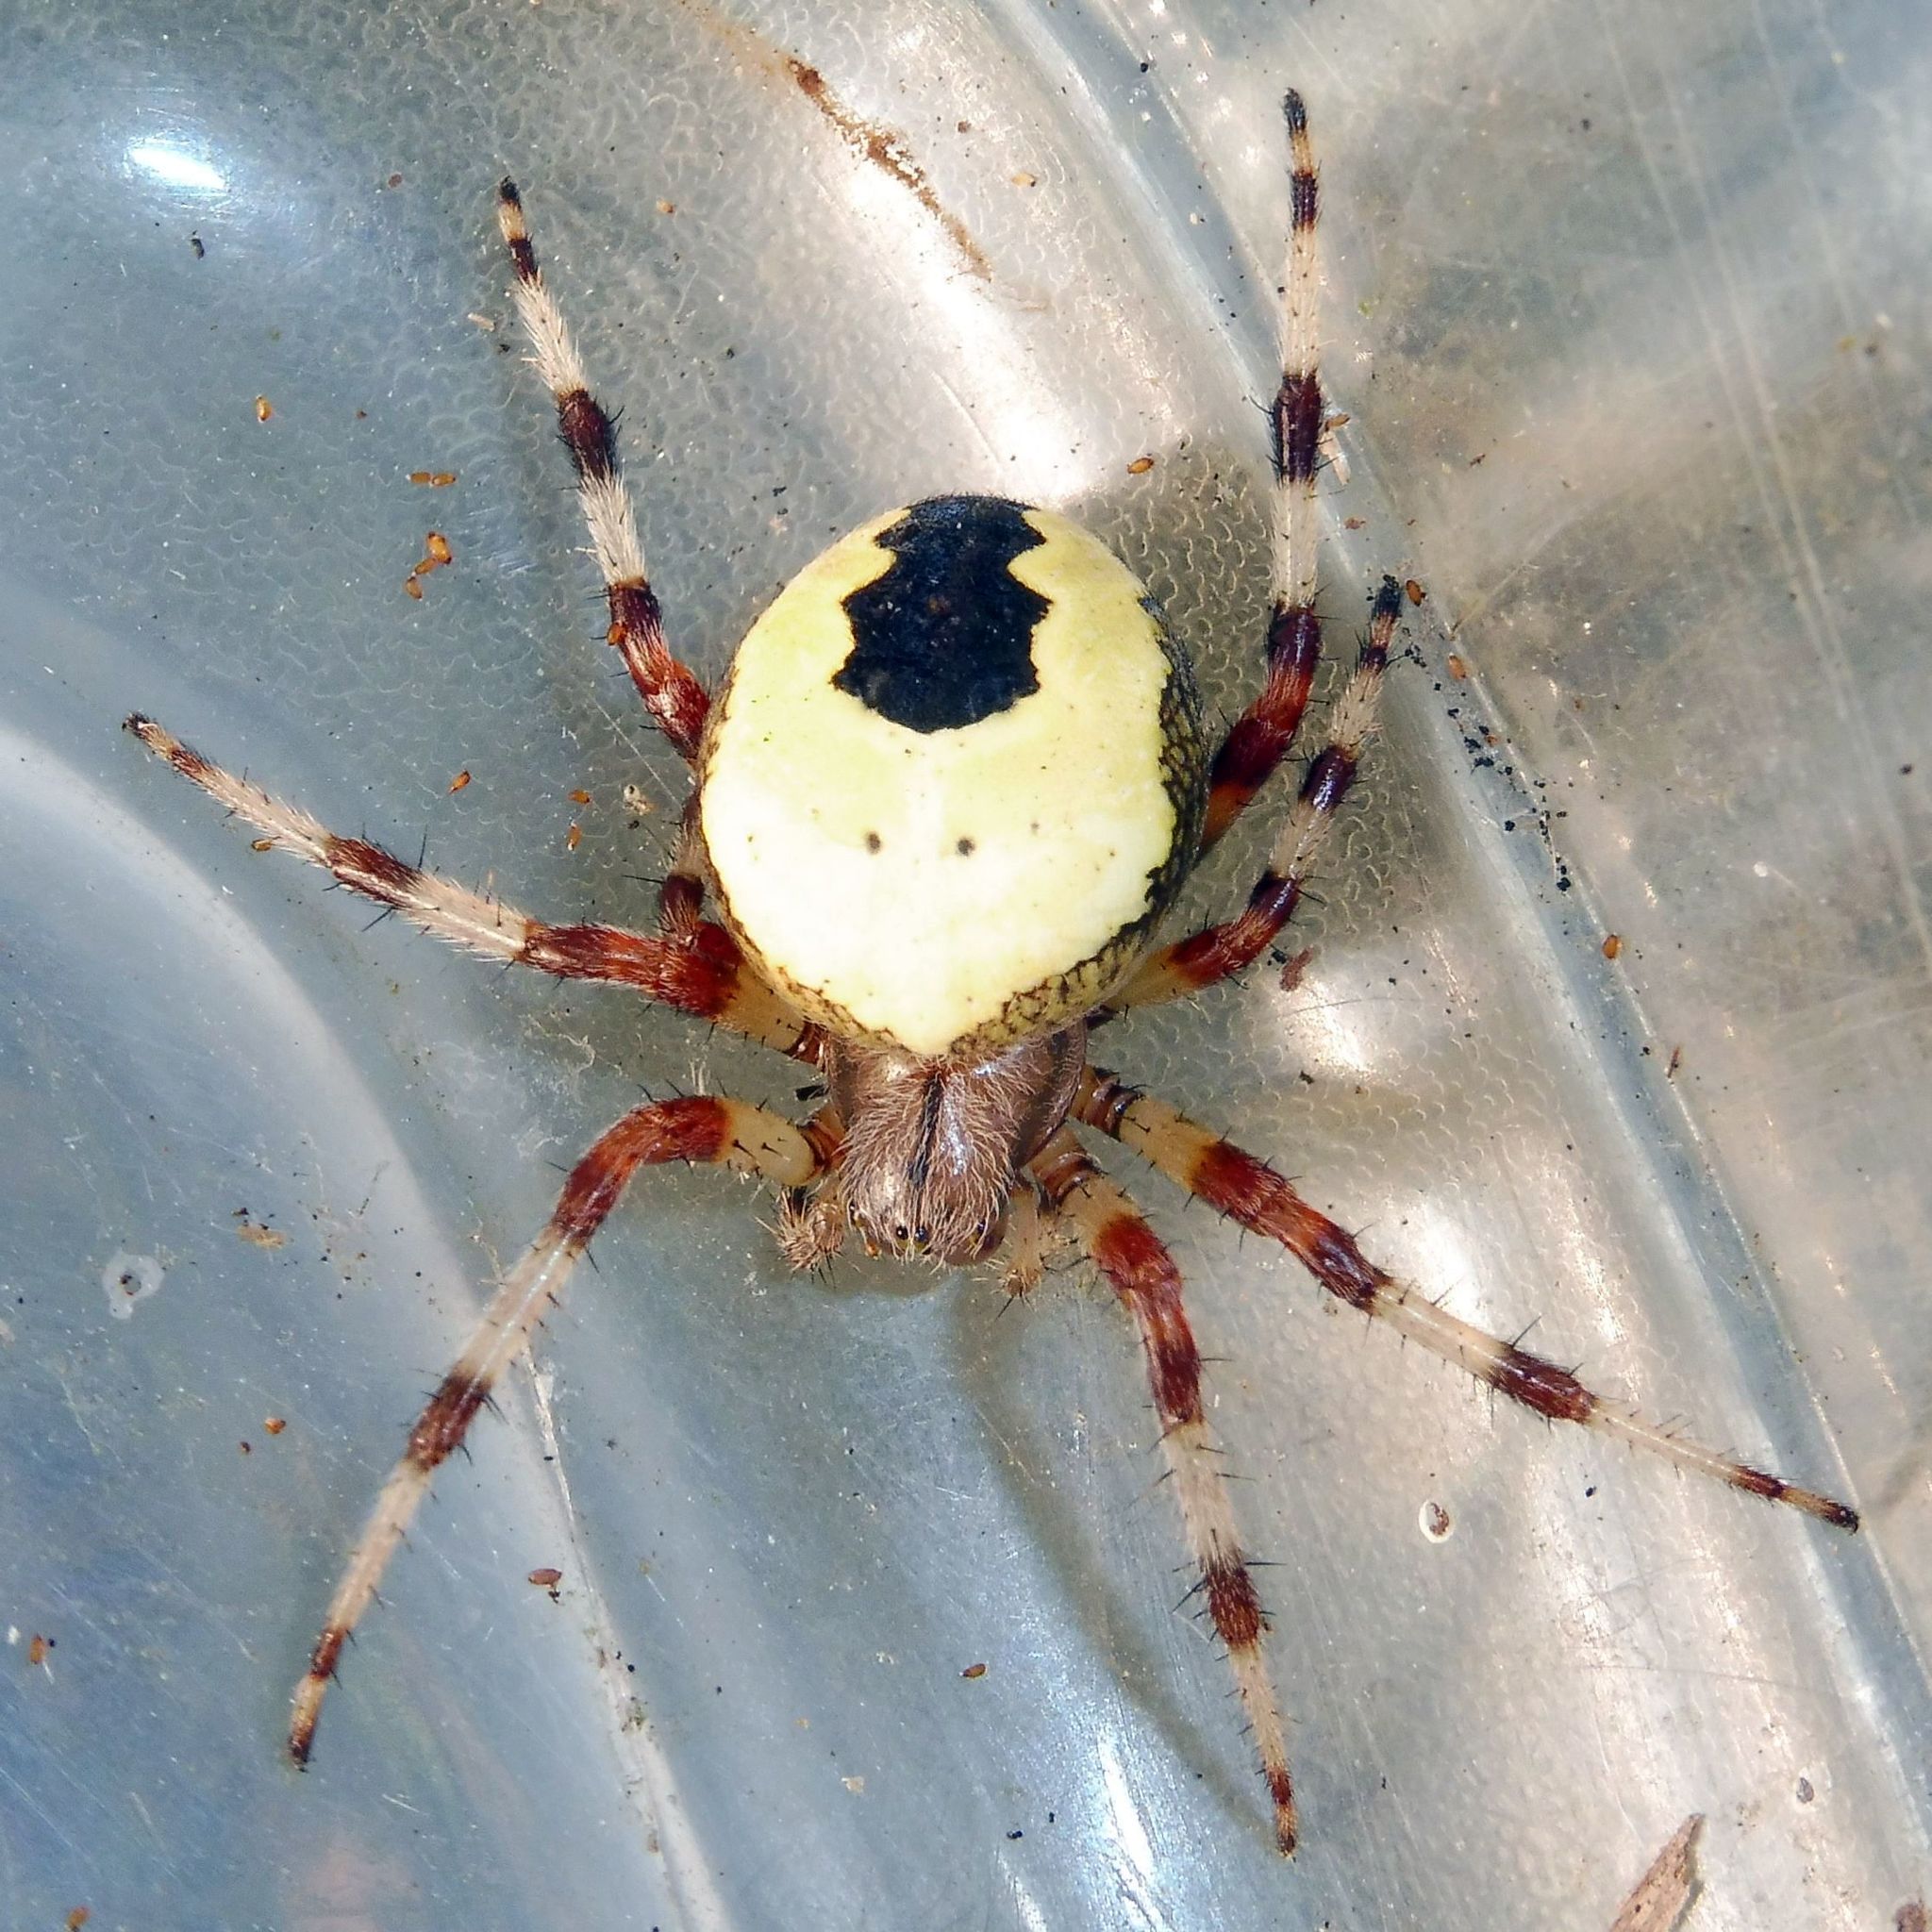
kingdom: Animalia
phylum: Arthropoda
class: Arachnida
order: Araneae
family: Araneidae
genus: Araneus
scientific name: Araneus marmoreus
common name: Marbled orbweaver
